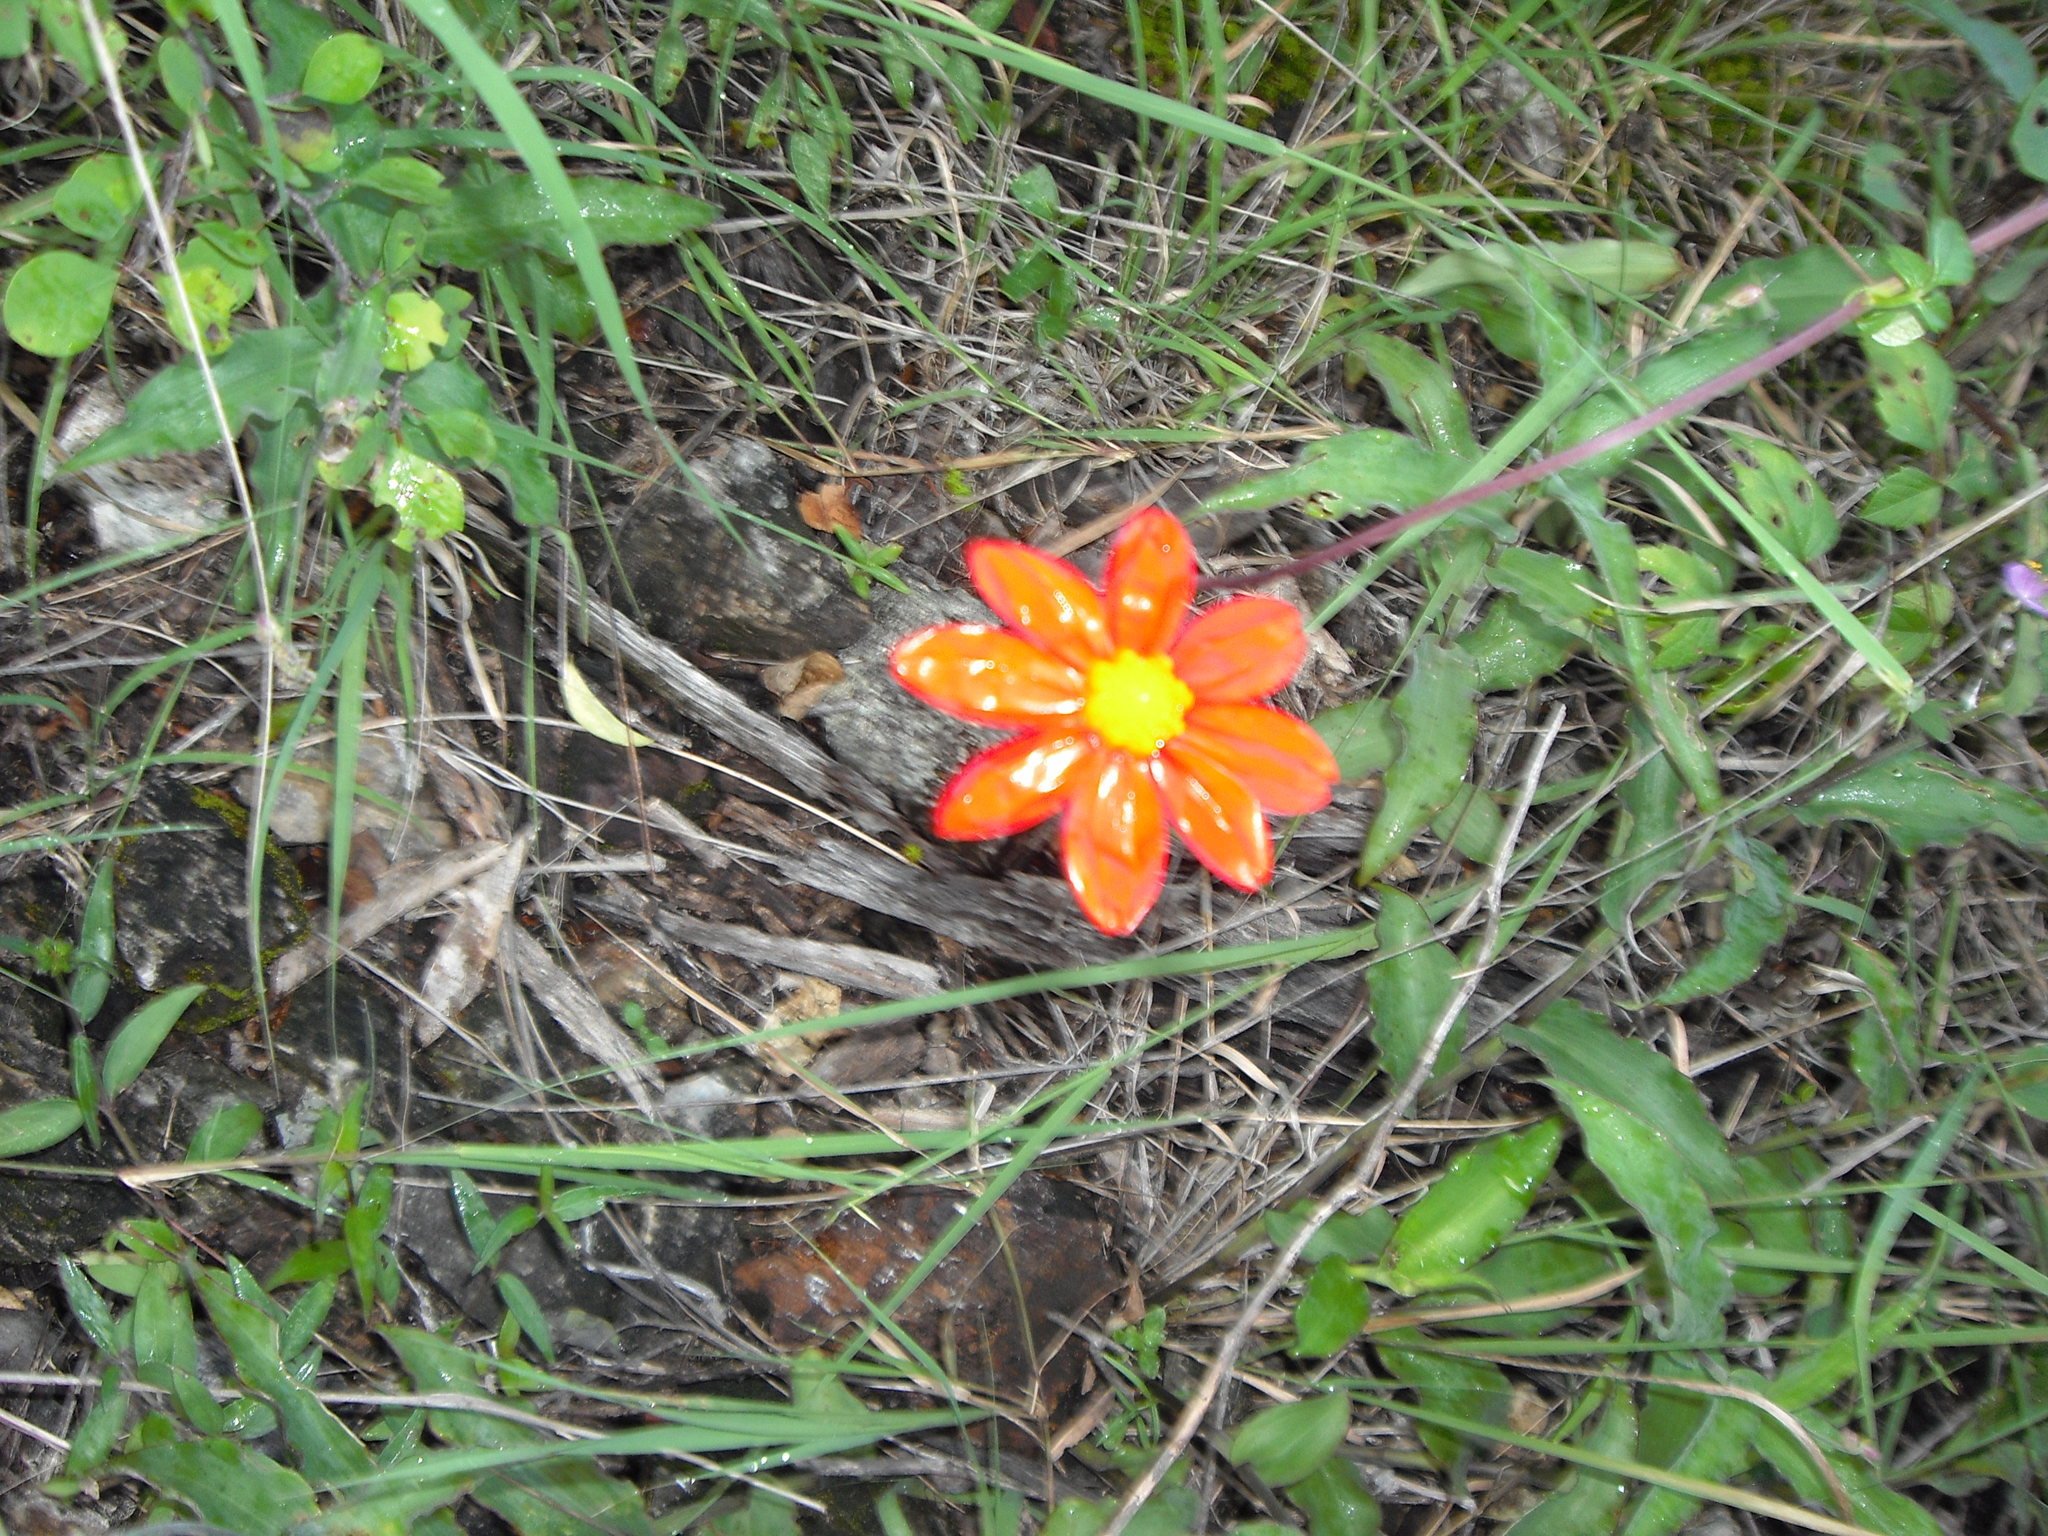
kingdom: Plantae
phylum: Tracheophyta
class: Magnoliopsida
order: Asterales
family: Asteraceae
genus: Dahlia
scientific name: Dahlia coccinea
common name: Red dahlia
